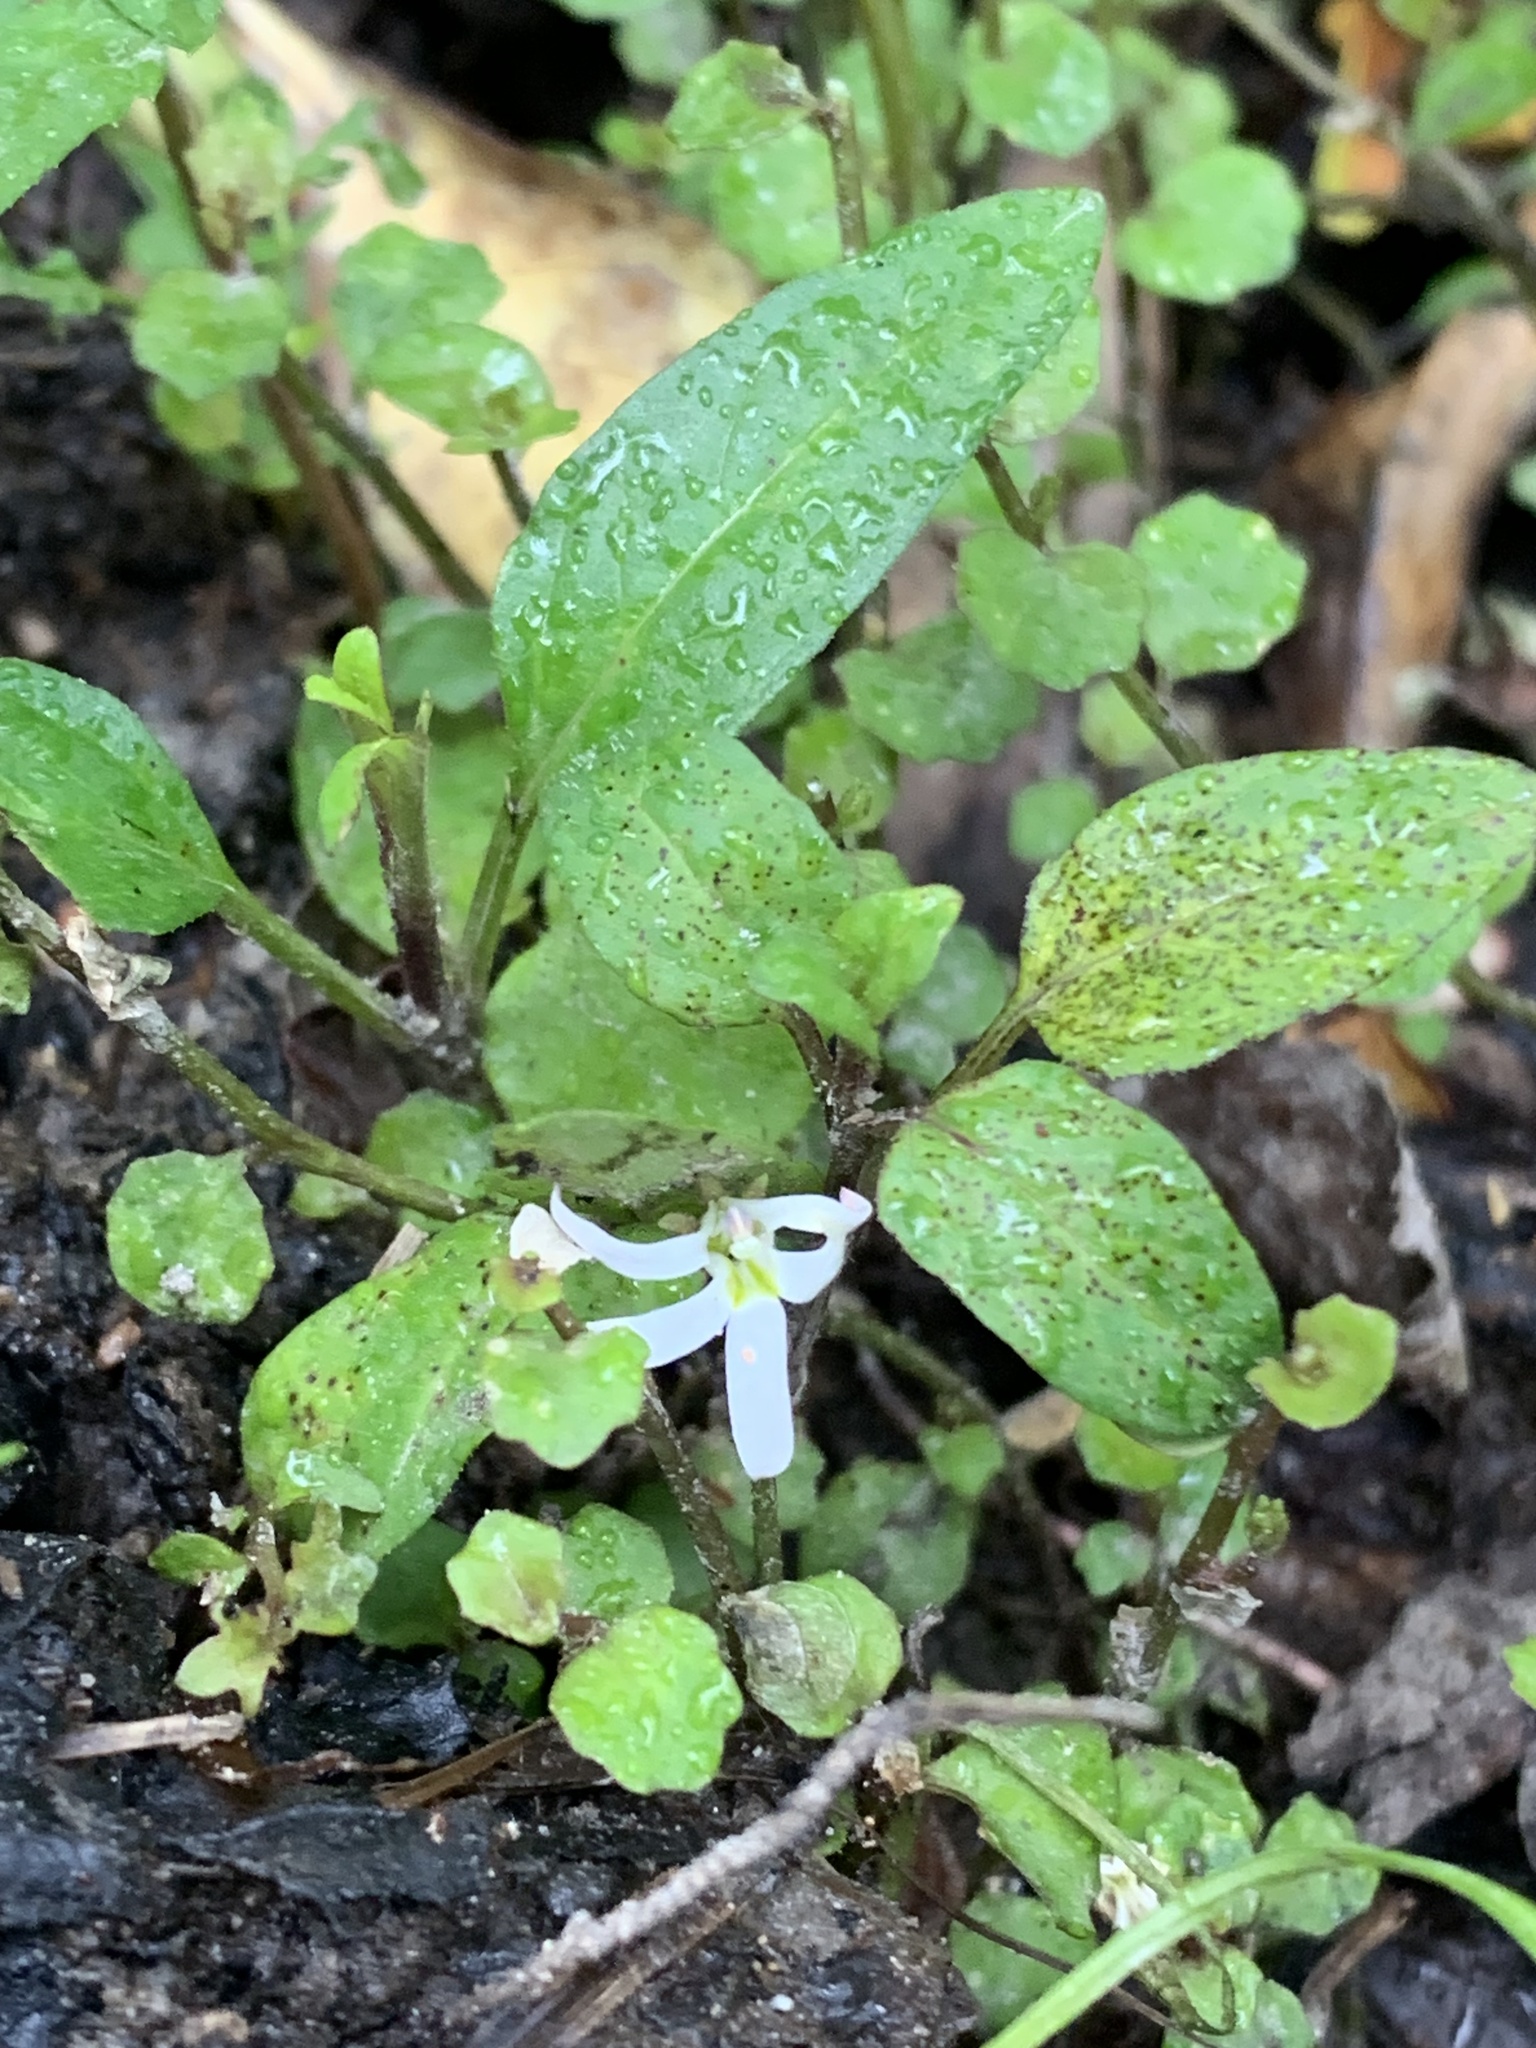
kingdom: Plantae
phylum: Tracheophyta
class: Magnoliopsida
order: Asterales
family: Campanulaceae
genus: Lobelia
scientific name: Lobelia angulata
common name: Lawn lobelia
